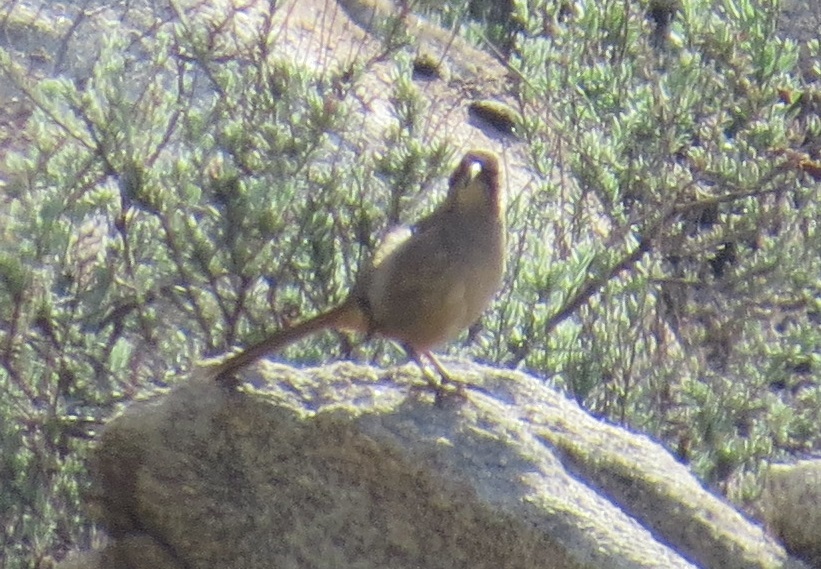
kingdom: Animalia
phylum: Chordata
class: Aves
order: Passeriformes
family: Mimidae
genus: Toxostoma
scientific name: Toxostoma redivivum
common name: California thrasher
